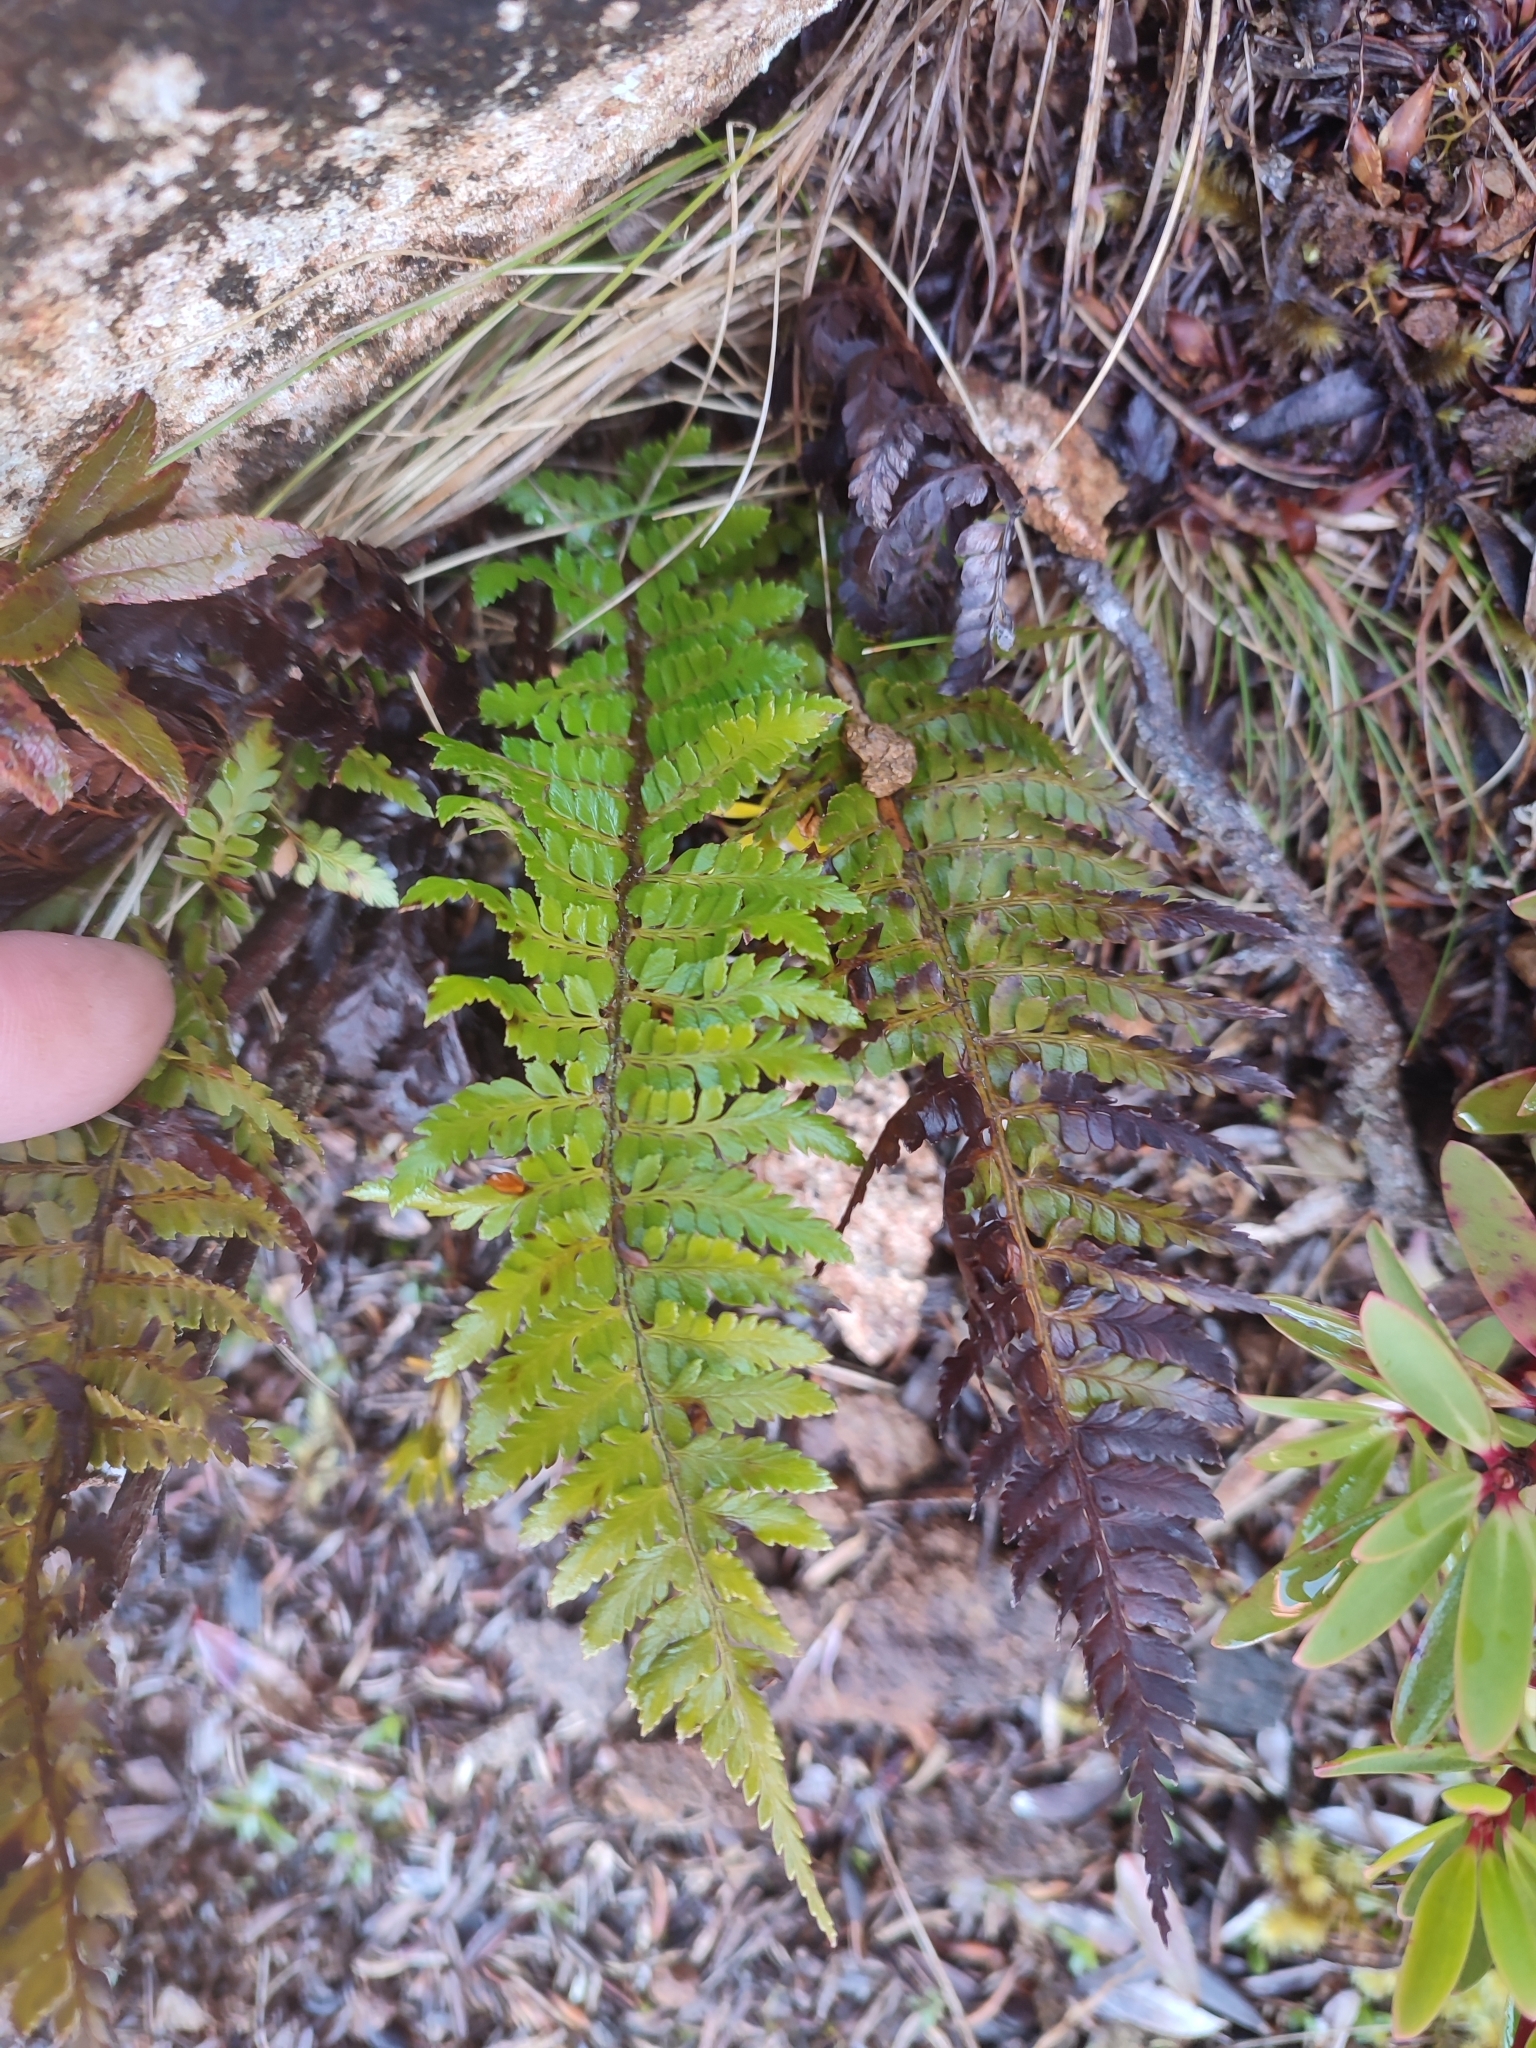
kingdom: Plantae
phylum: Tracheophyta
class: Polypodiopsida
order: Polypodiales
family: Dryopteridaceae
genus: Polystichum
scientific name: Polystichum proliferum
